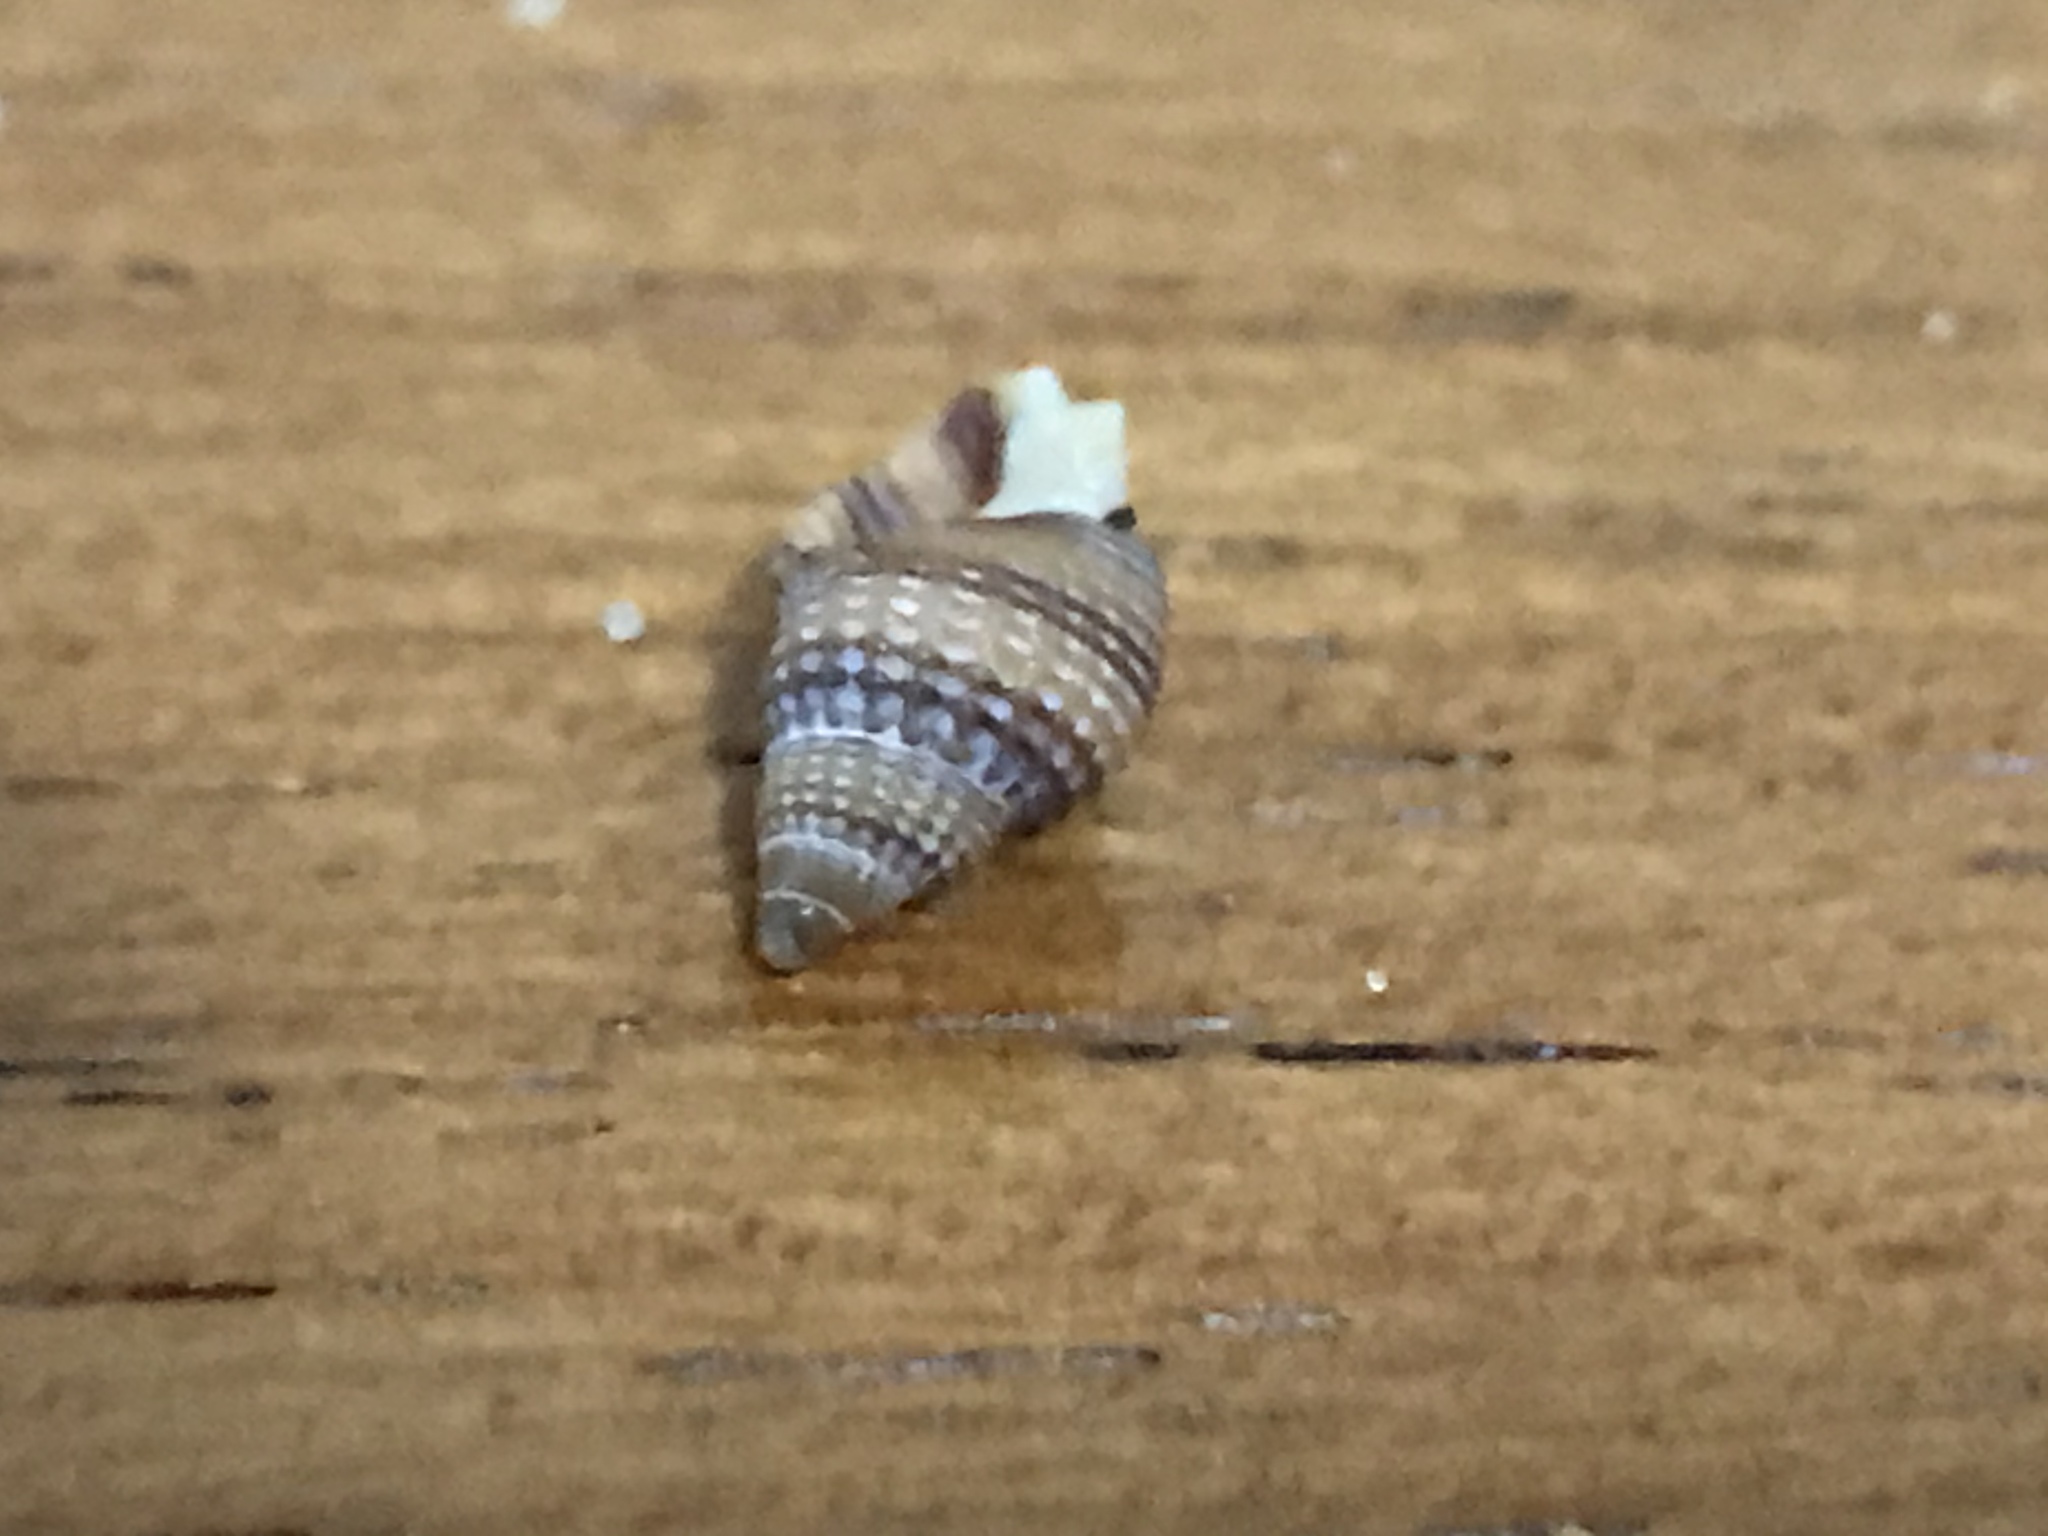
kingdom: Animalia
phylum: Mollusca
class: Gastropoda
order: Neogastropoda
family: Nassariidae
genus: Caesia
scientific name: Caesia fossata
